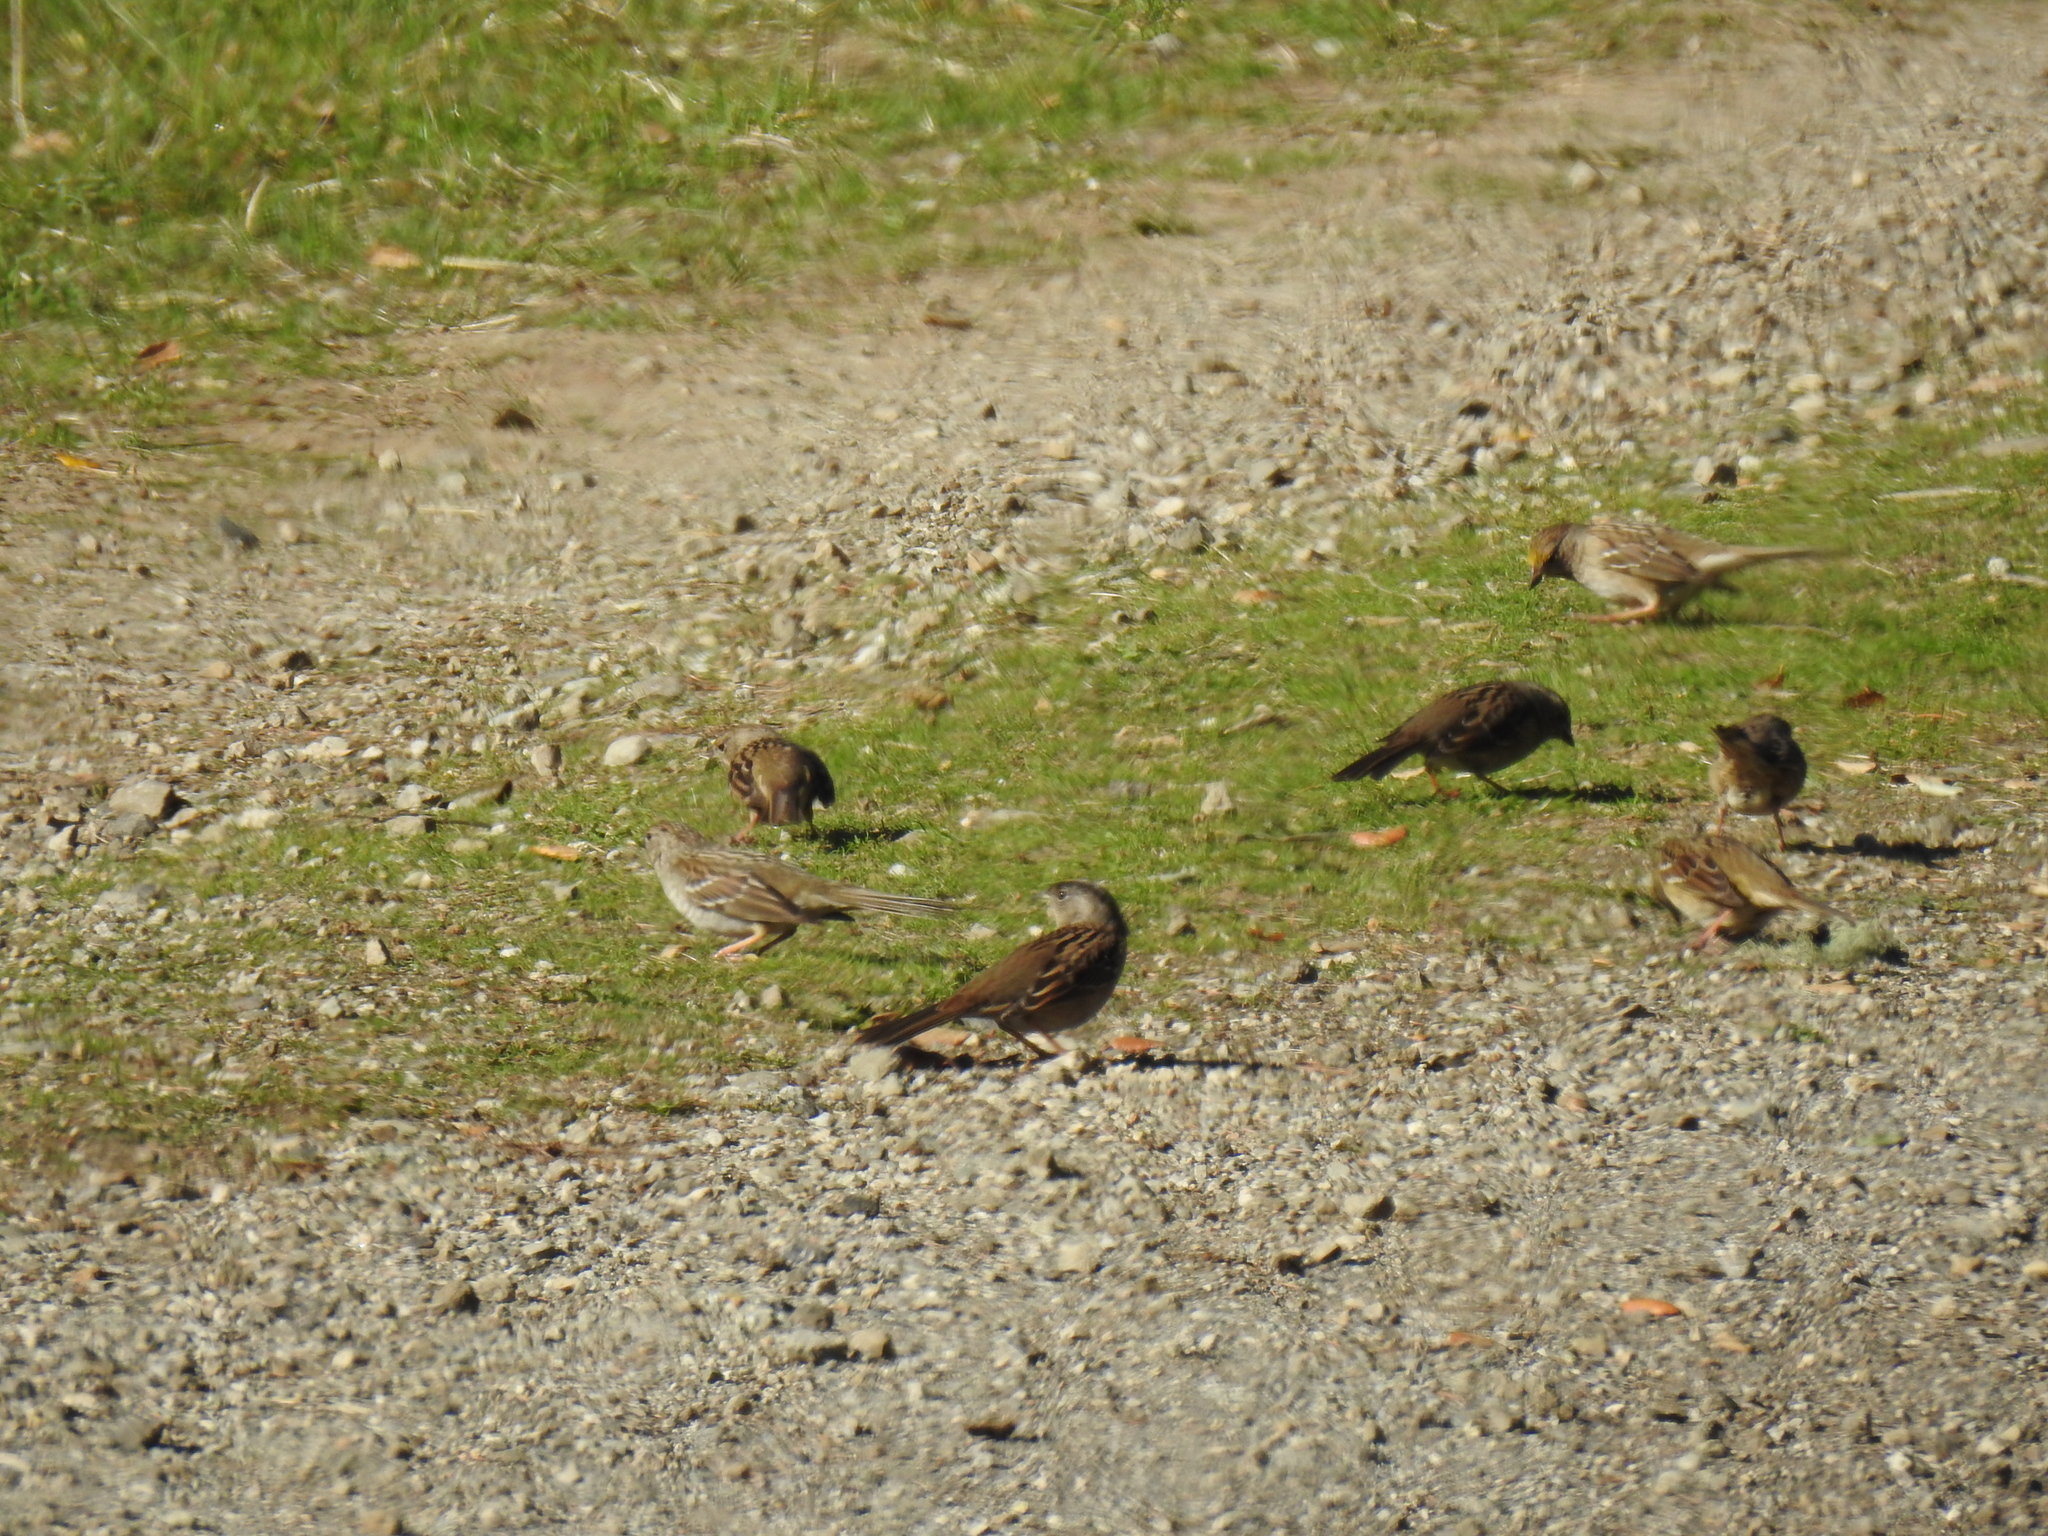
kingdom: Animalia
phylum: Chordata
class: Aves
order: Passeriformes
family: Passerellidae
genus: Zonotrichia
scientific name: Zonotrichia atricapilla
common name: Golden-crowned sparrow
